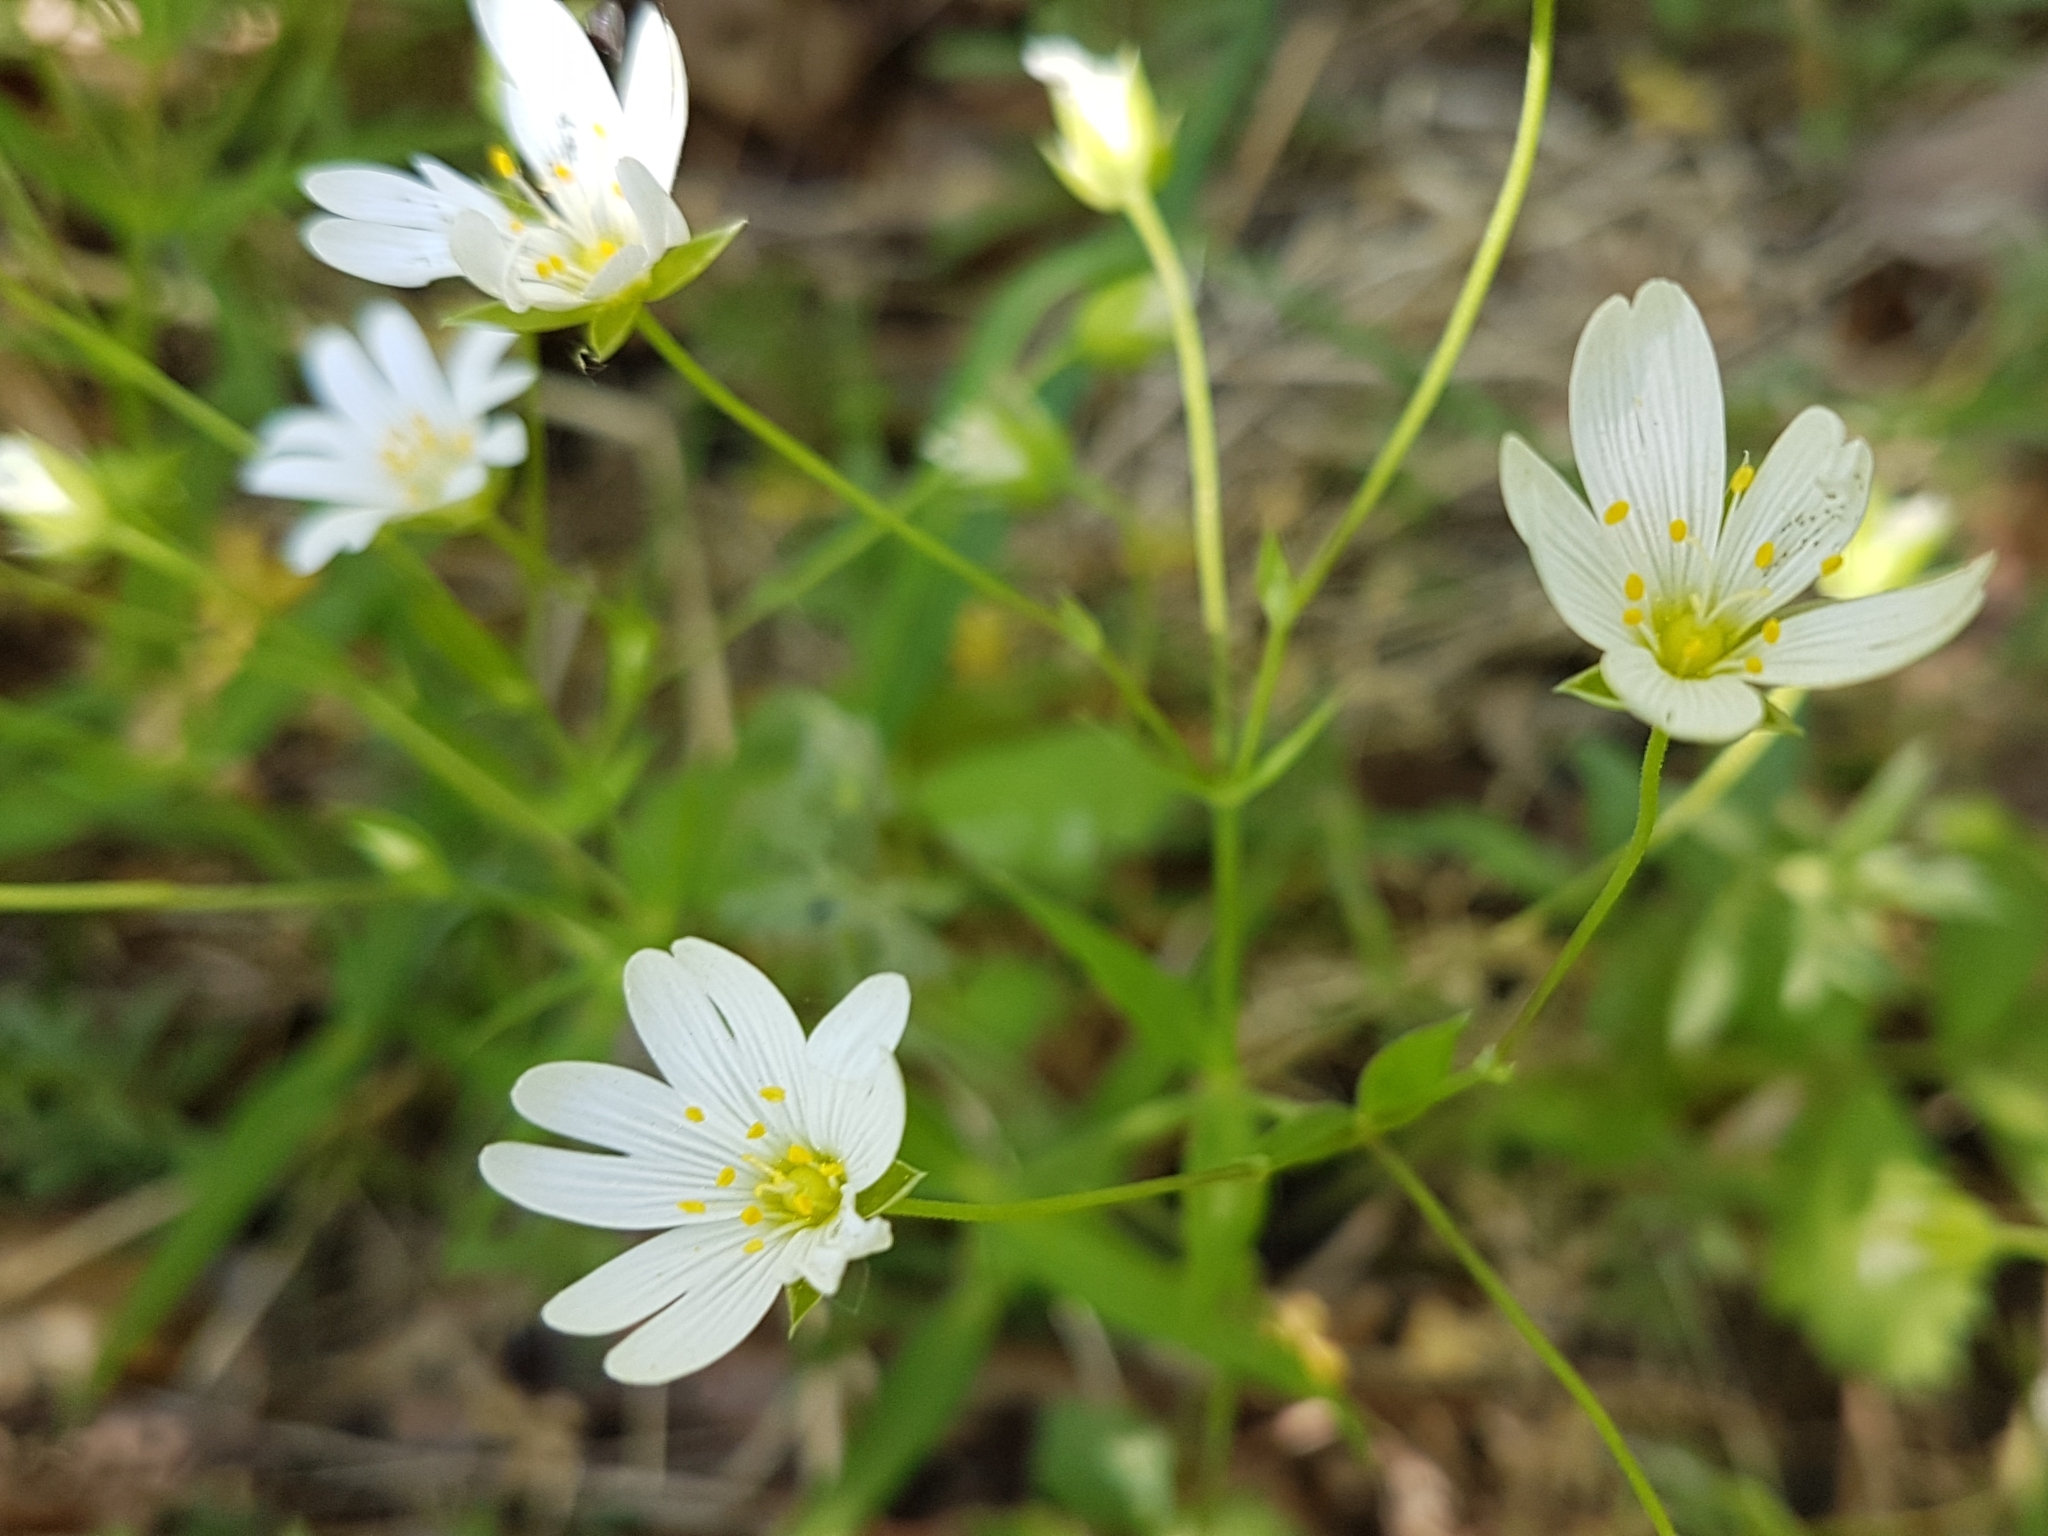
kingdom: Plantae
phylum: Tracheophyta
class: Magnoliopsida
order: Caryophyllales
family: Caryophyllaceae
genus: Rabelera
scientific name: Rabelera holostea
